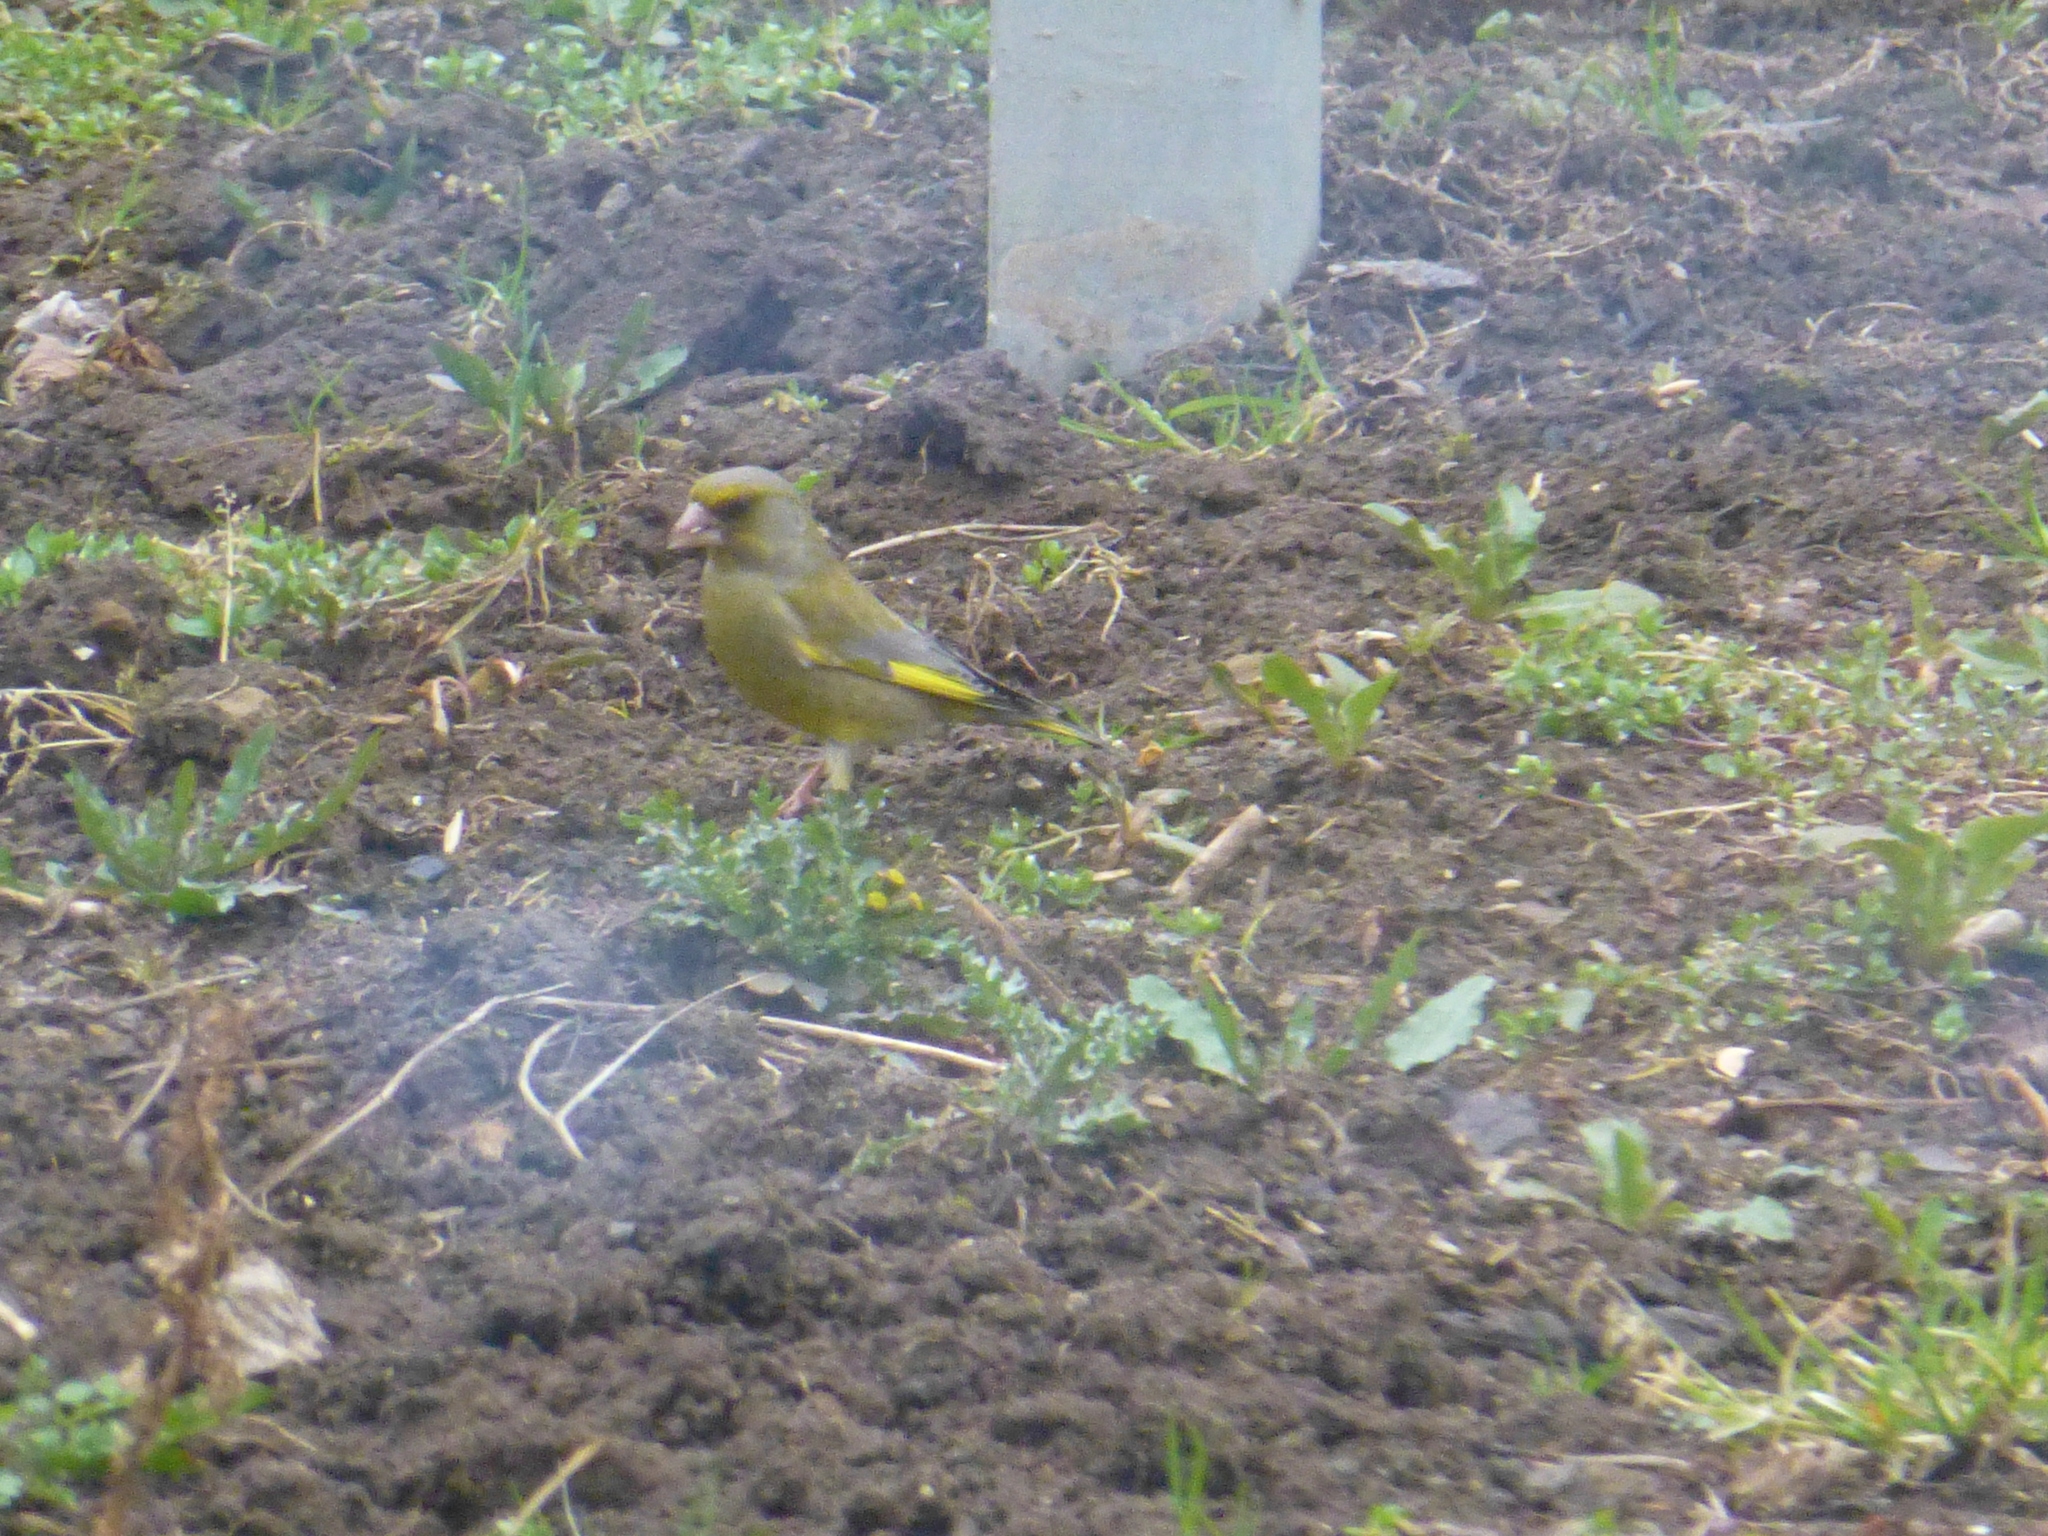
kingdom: Plantae
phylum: Tracheophyta
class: Liliopsida
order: Poales
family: Poaceae
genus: Chloris
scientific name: Chloris chloris
